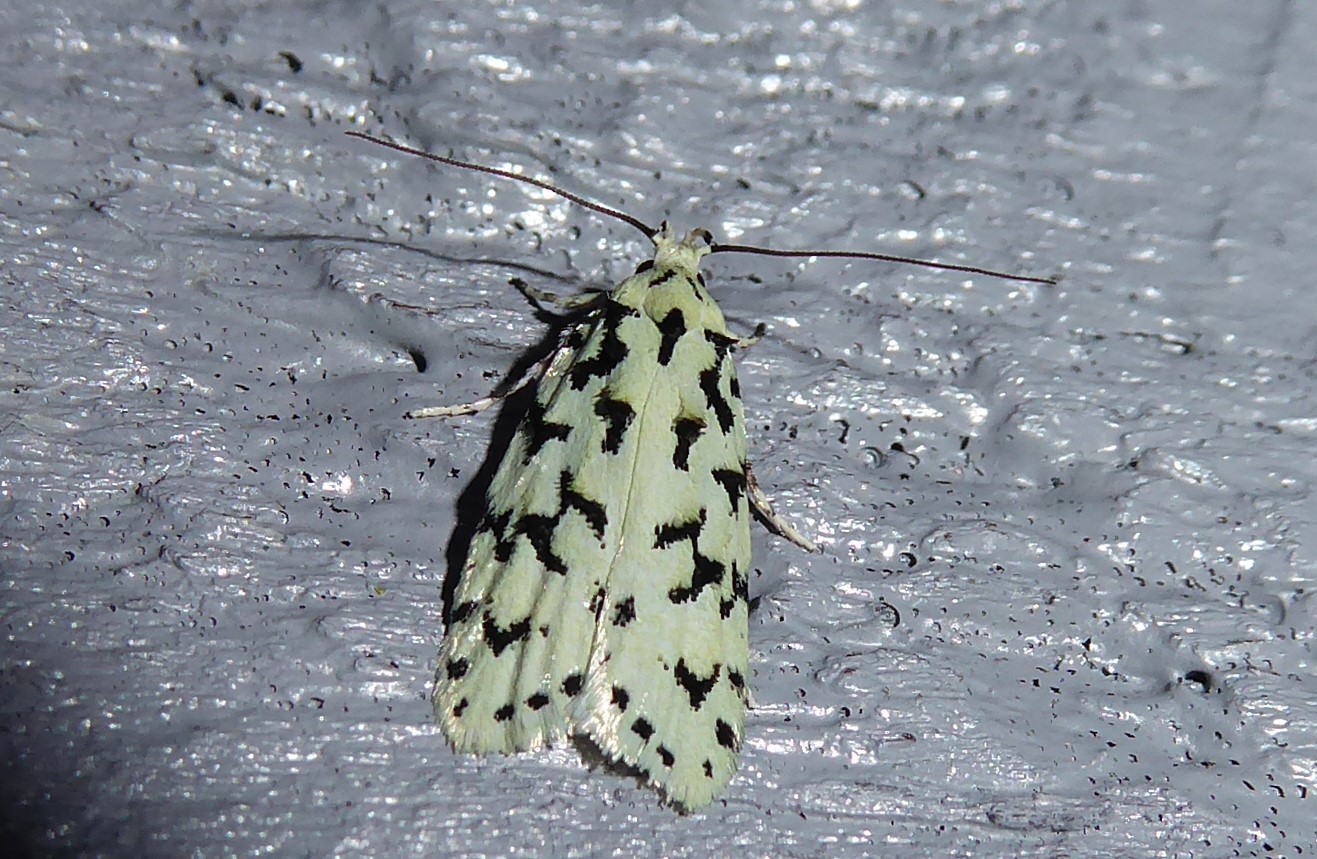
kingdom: Animalia
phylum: Arthropoda
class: Insecta
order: Lepidoptera
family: Oecophoridae
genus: Izatha
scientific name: Izatha huttoni
